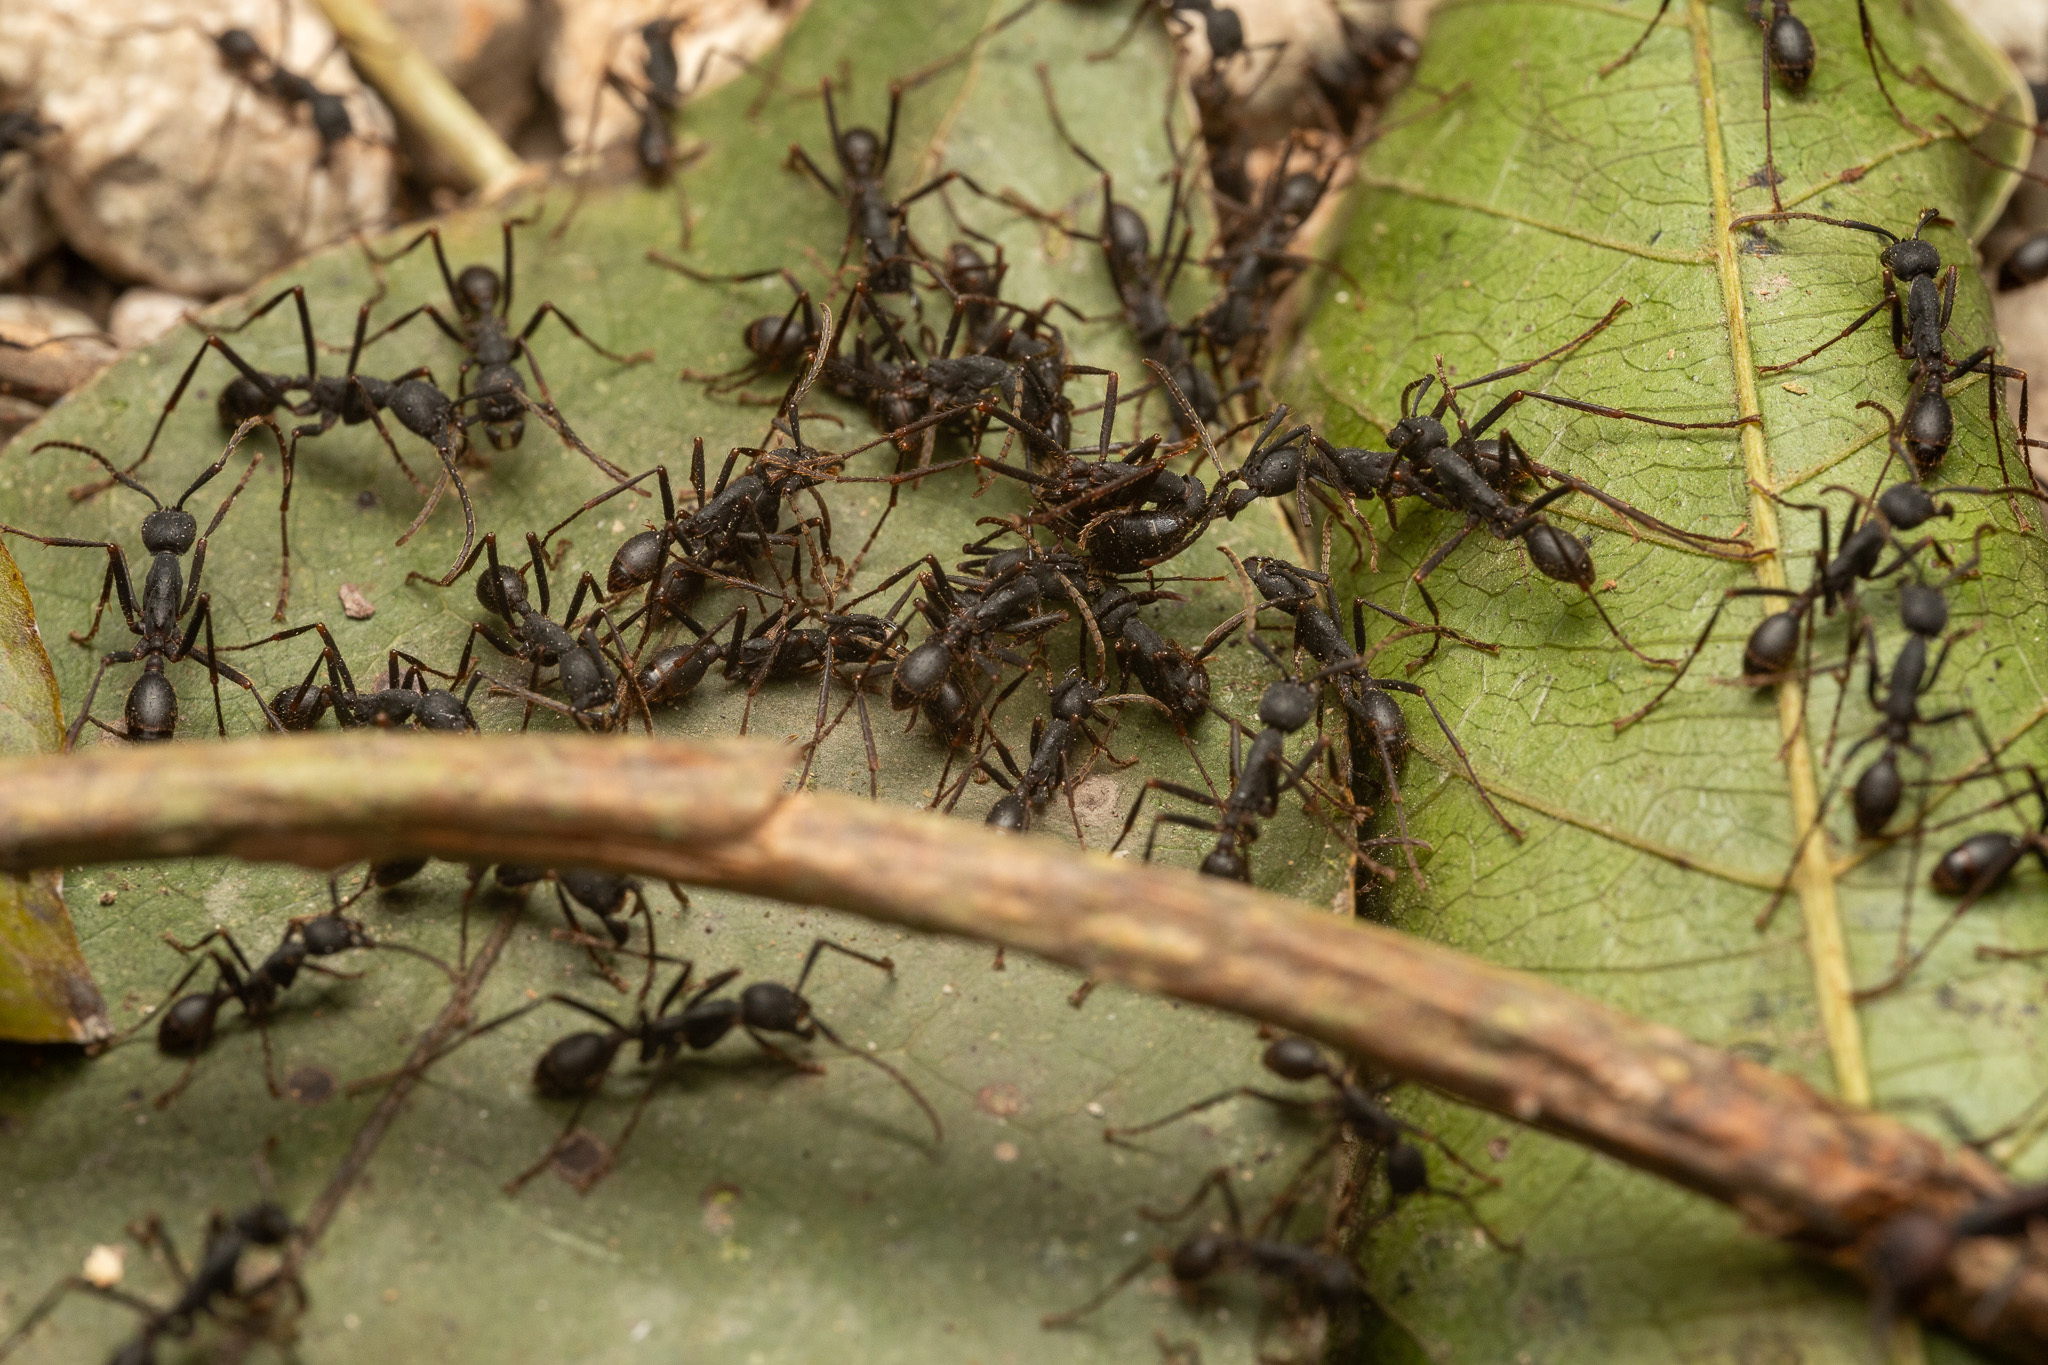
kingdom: Animalia
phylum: Arthropoda
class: Insecta
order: Hymenoptera
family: Formicidae
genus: Eciton
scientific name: Eciton burchellii
